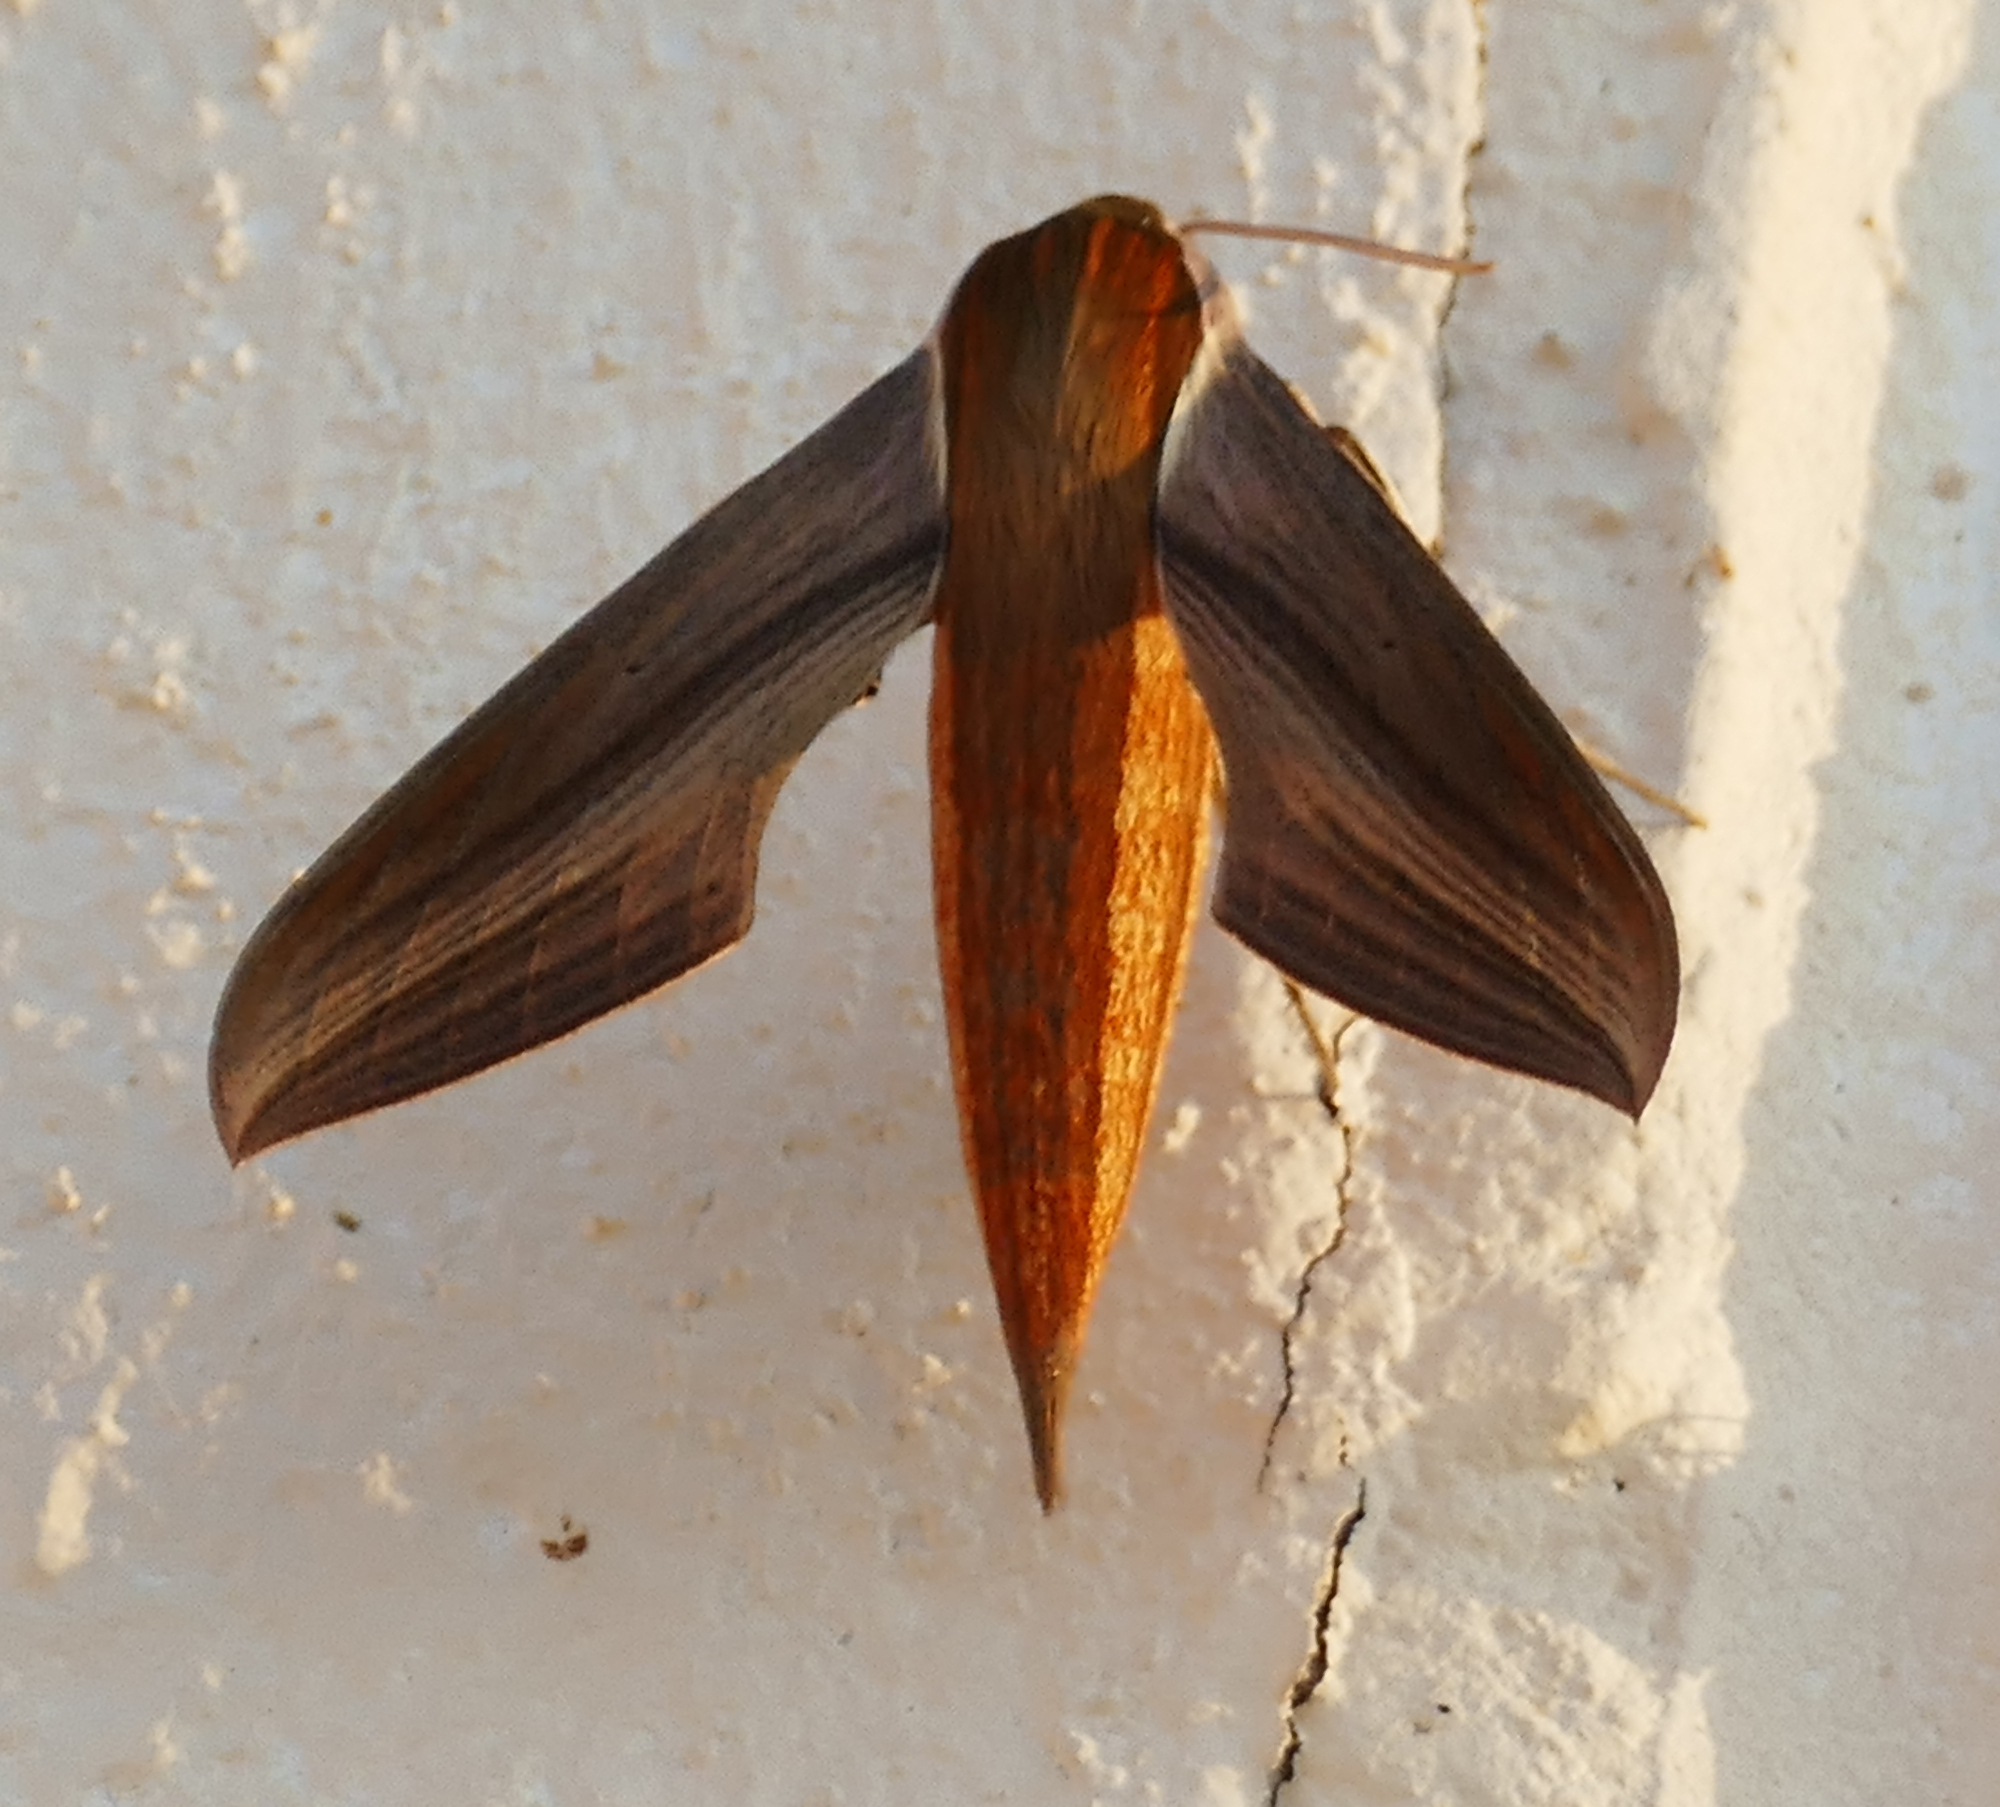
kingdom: Animalia
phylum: Arthropoda
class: Insecta
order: Lepidoptera
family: Sphingidae
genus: Xylophanes
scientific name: Xylophanes tersa
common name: Tersa sphinx
